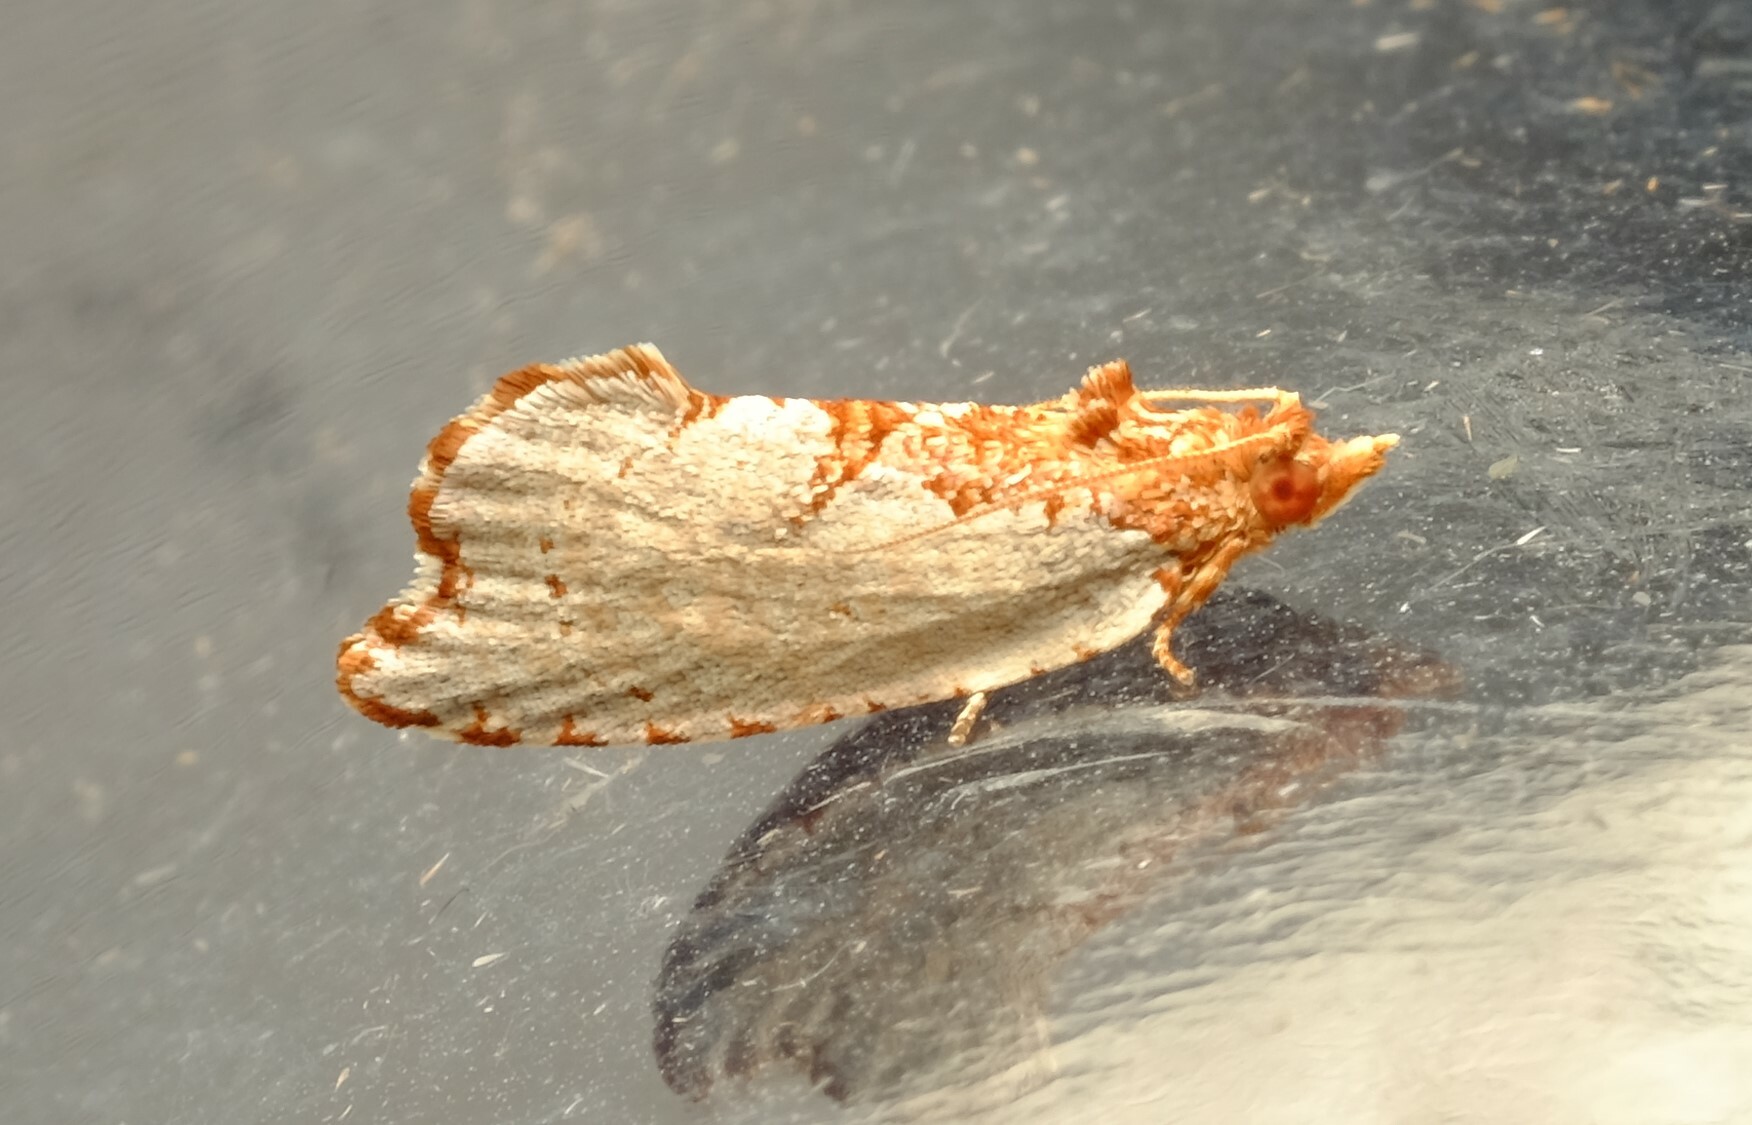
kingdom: Animalia
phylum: Arthropoda
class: Insecta
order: Lepidoptera
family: Tortricidae
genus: Glyphidoptera
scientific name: Glyphidoptera polymita
